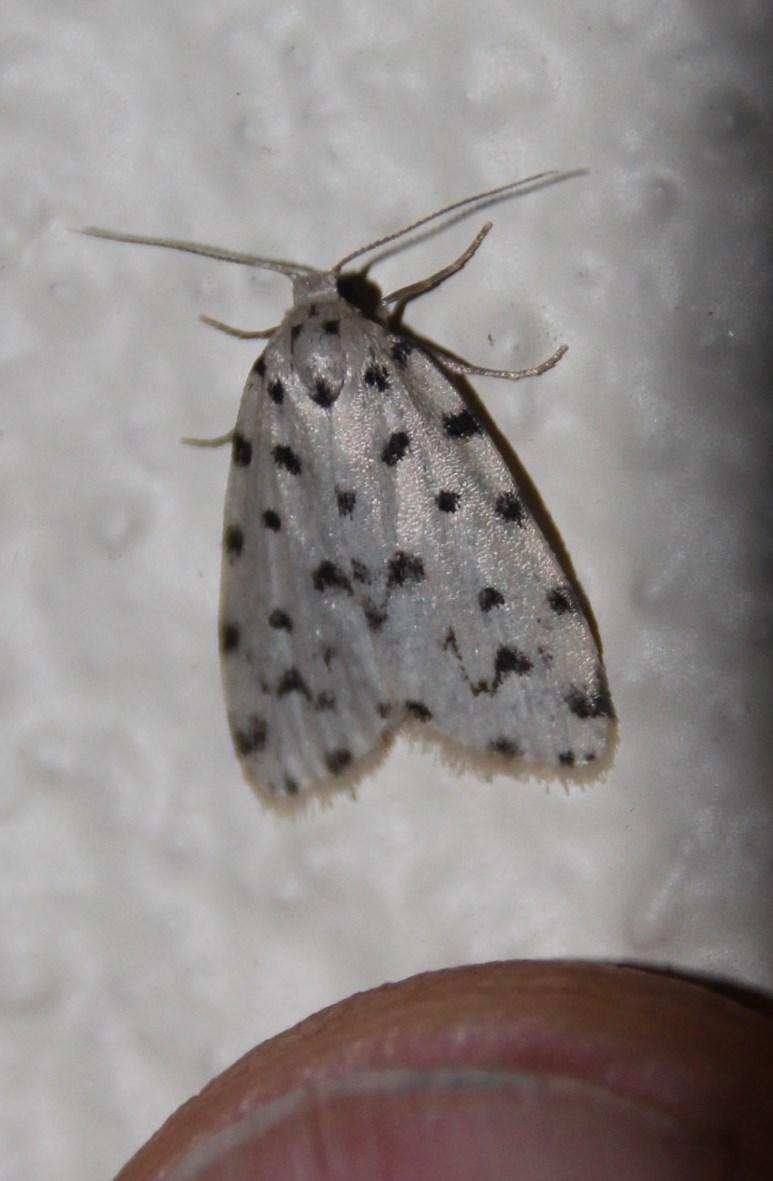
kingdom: Animalia
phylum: Arthropoda
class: Insecta
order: Lepidoptera
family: Erebidae
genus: Siccia
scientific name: Siccia caffra
